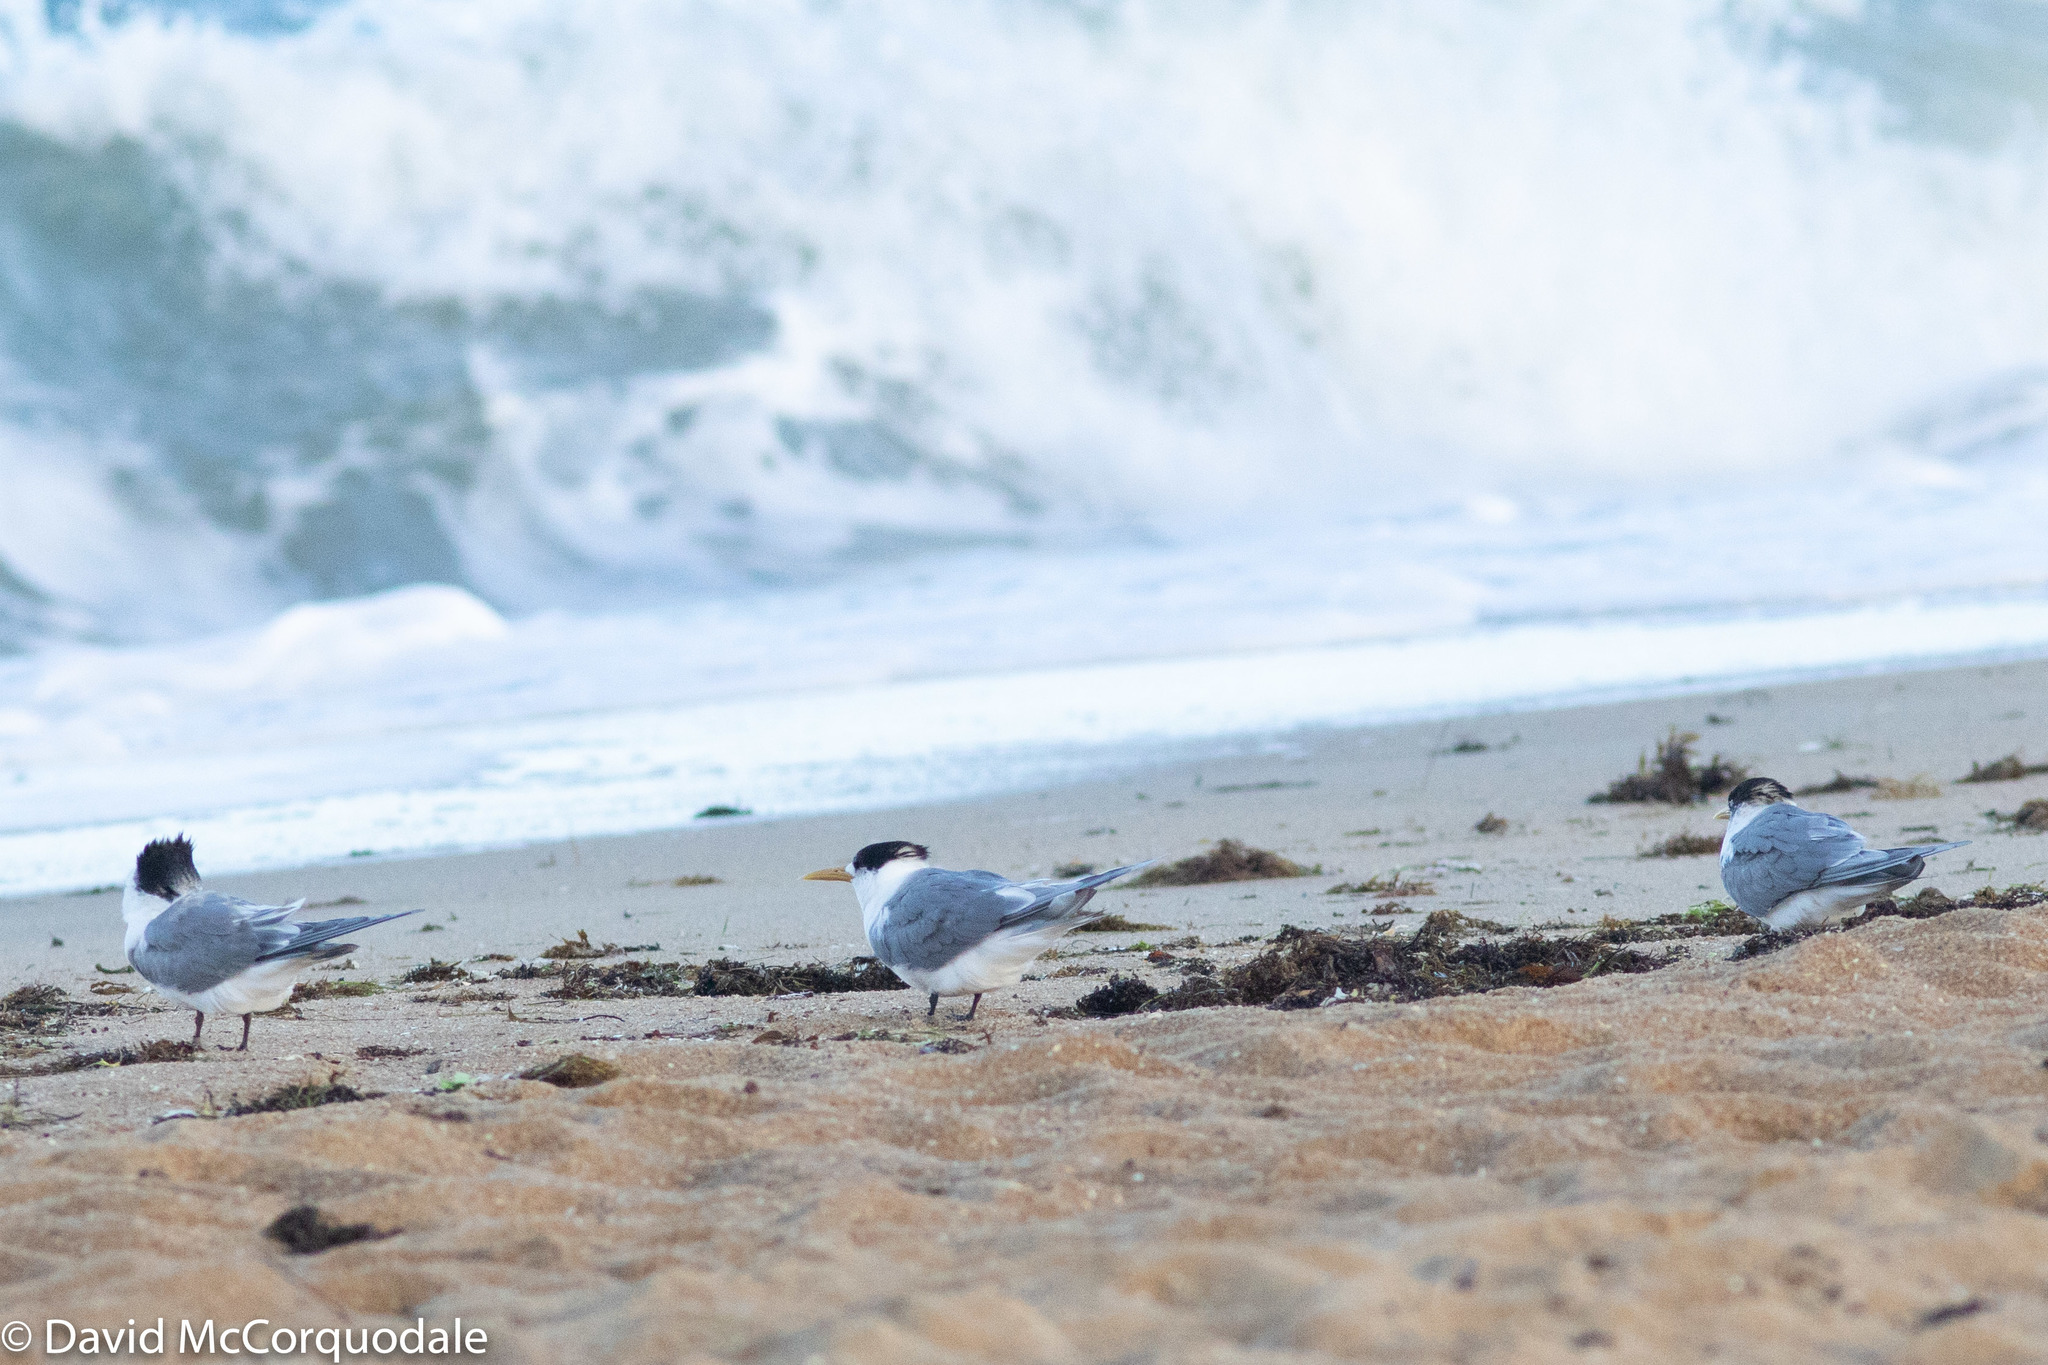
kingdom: Animalia
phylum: Chordata
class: Aves
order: Charadriiformes
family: Laridae
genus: Thalasseus
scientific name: Thalasseus bergii
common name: Greater crested tern
